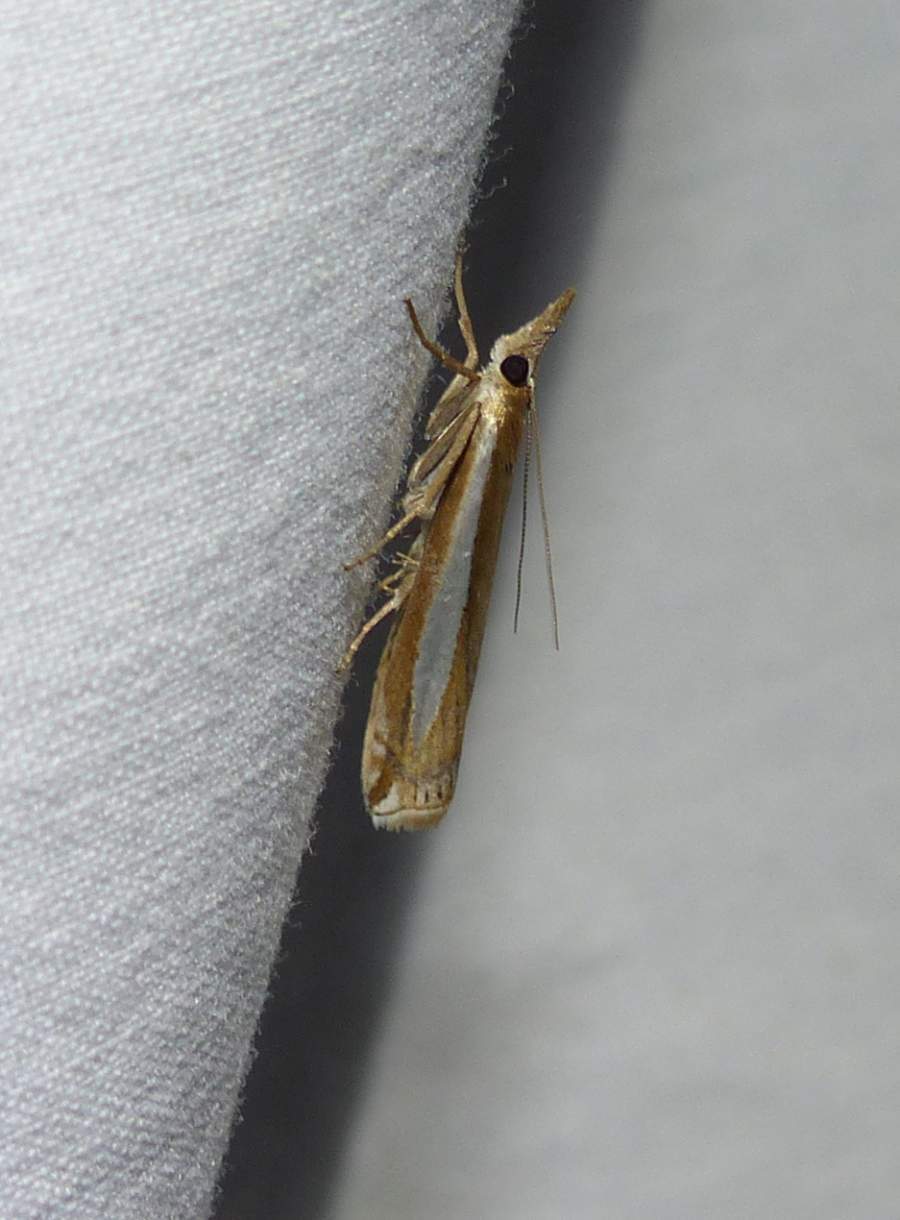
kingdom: Animalia
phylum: Arthropoda
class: Insecta
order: Lepidoptera
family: Crambidae
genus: Crambus
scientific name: Crambus praefectellus
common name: Common grass-veneer
